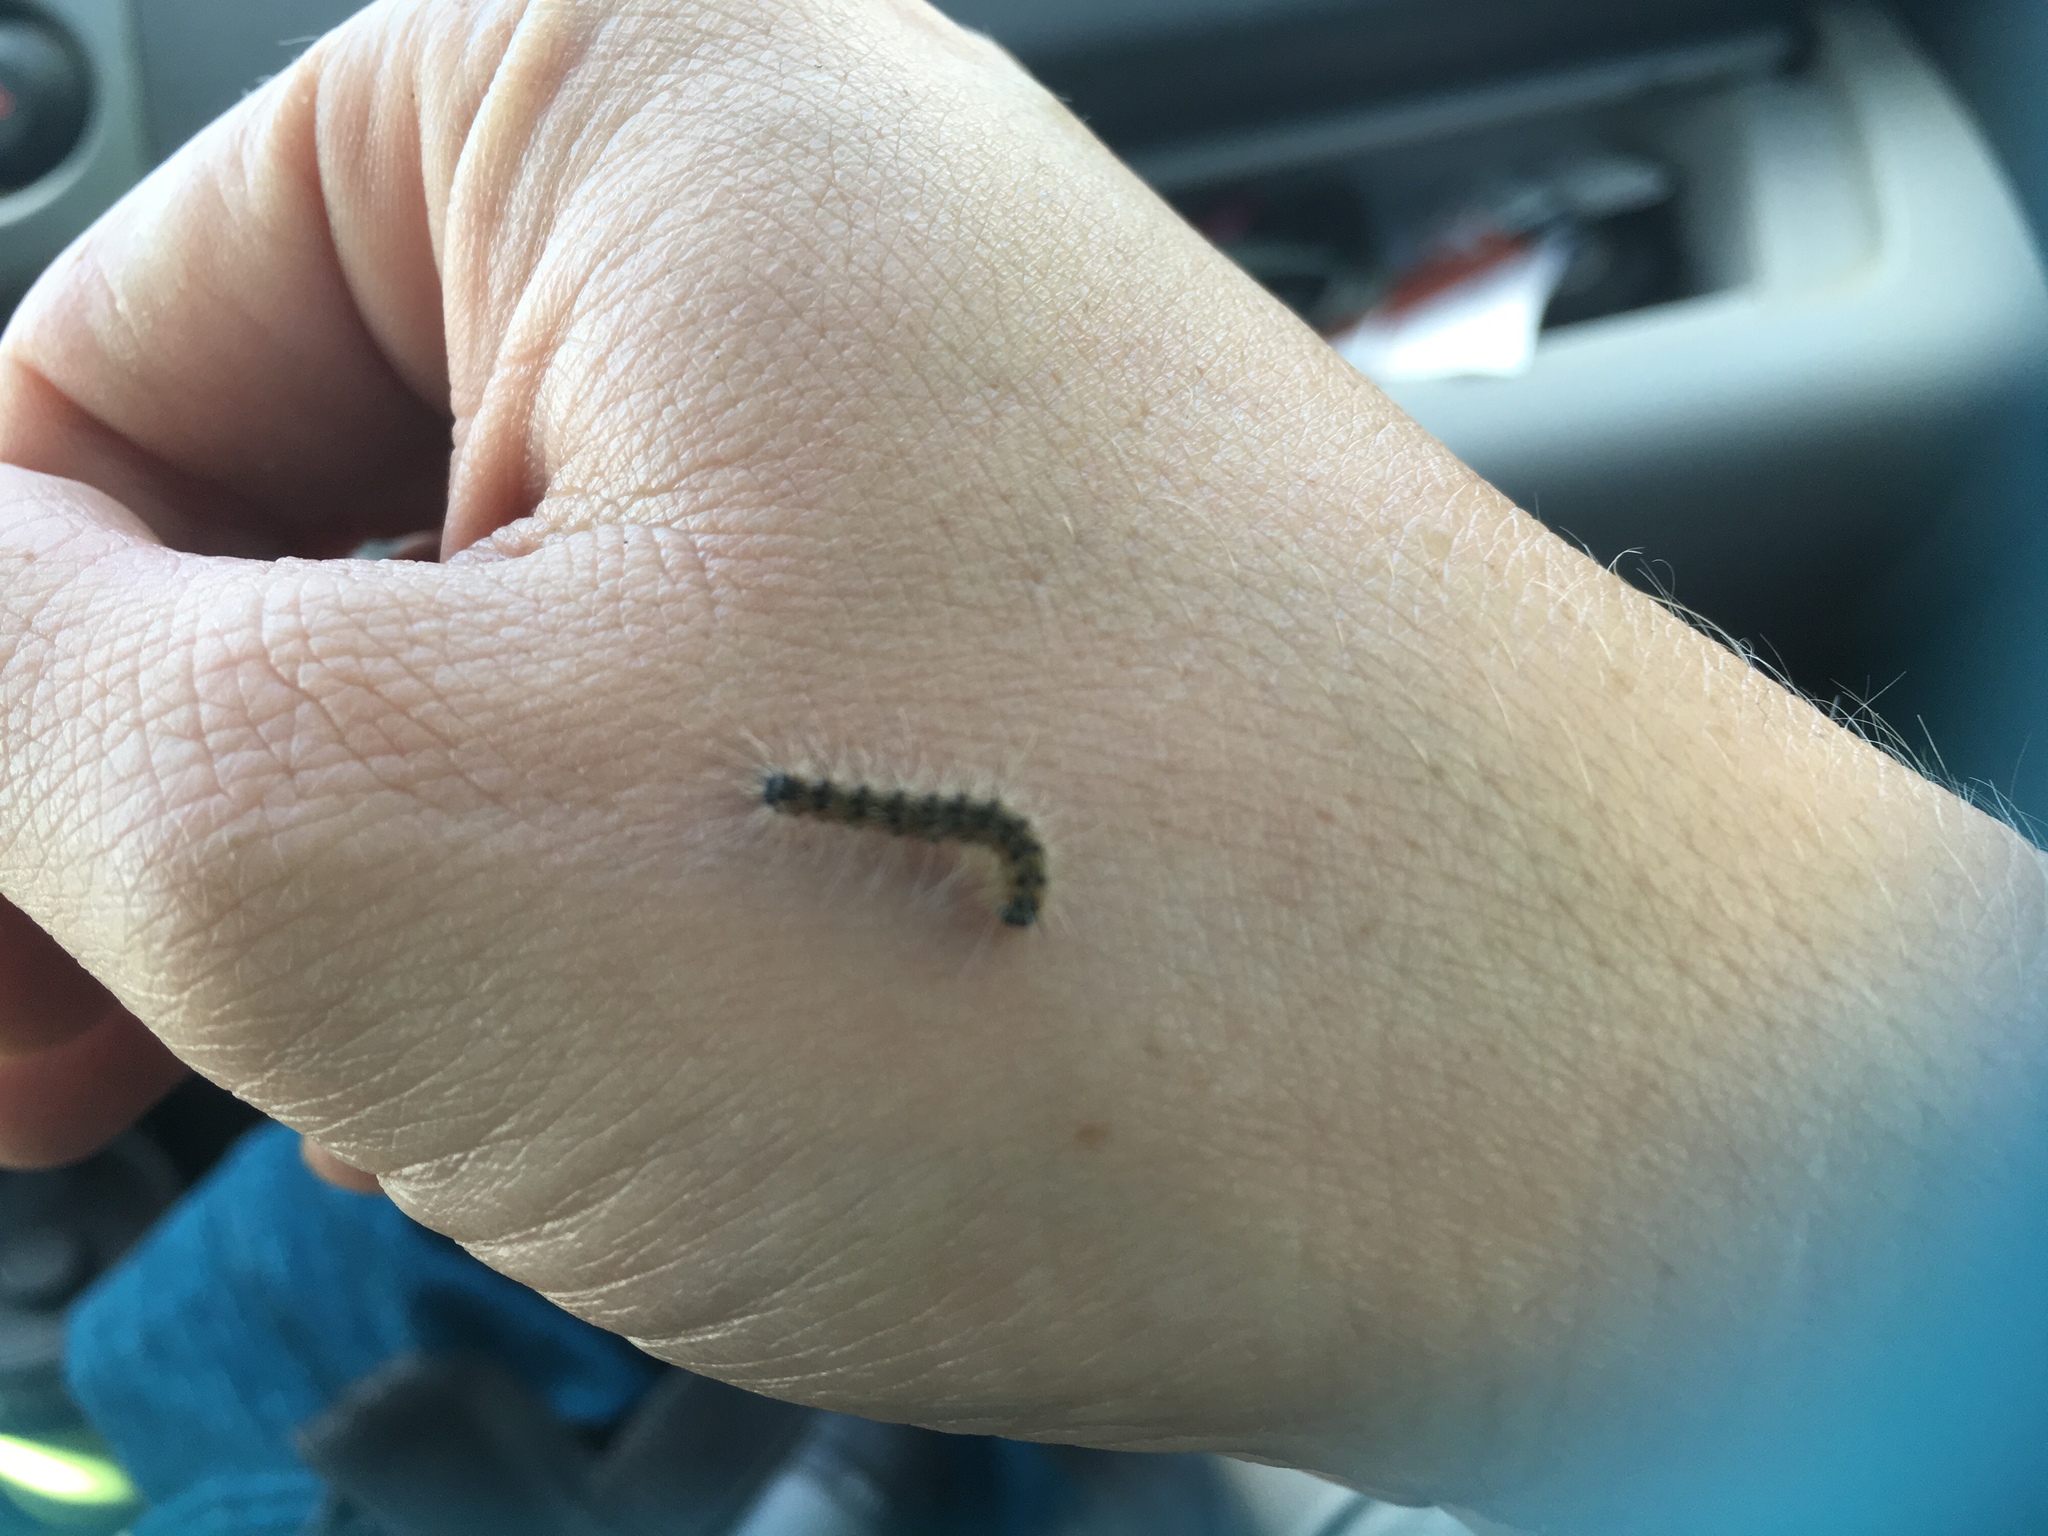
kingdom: Animalia
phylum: Arthropoda
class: Insecta
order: Lepidoptera
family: Erebidae
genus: Hyphantria
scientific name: Hyphantria cunea
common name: American white moth
